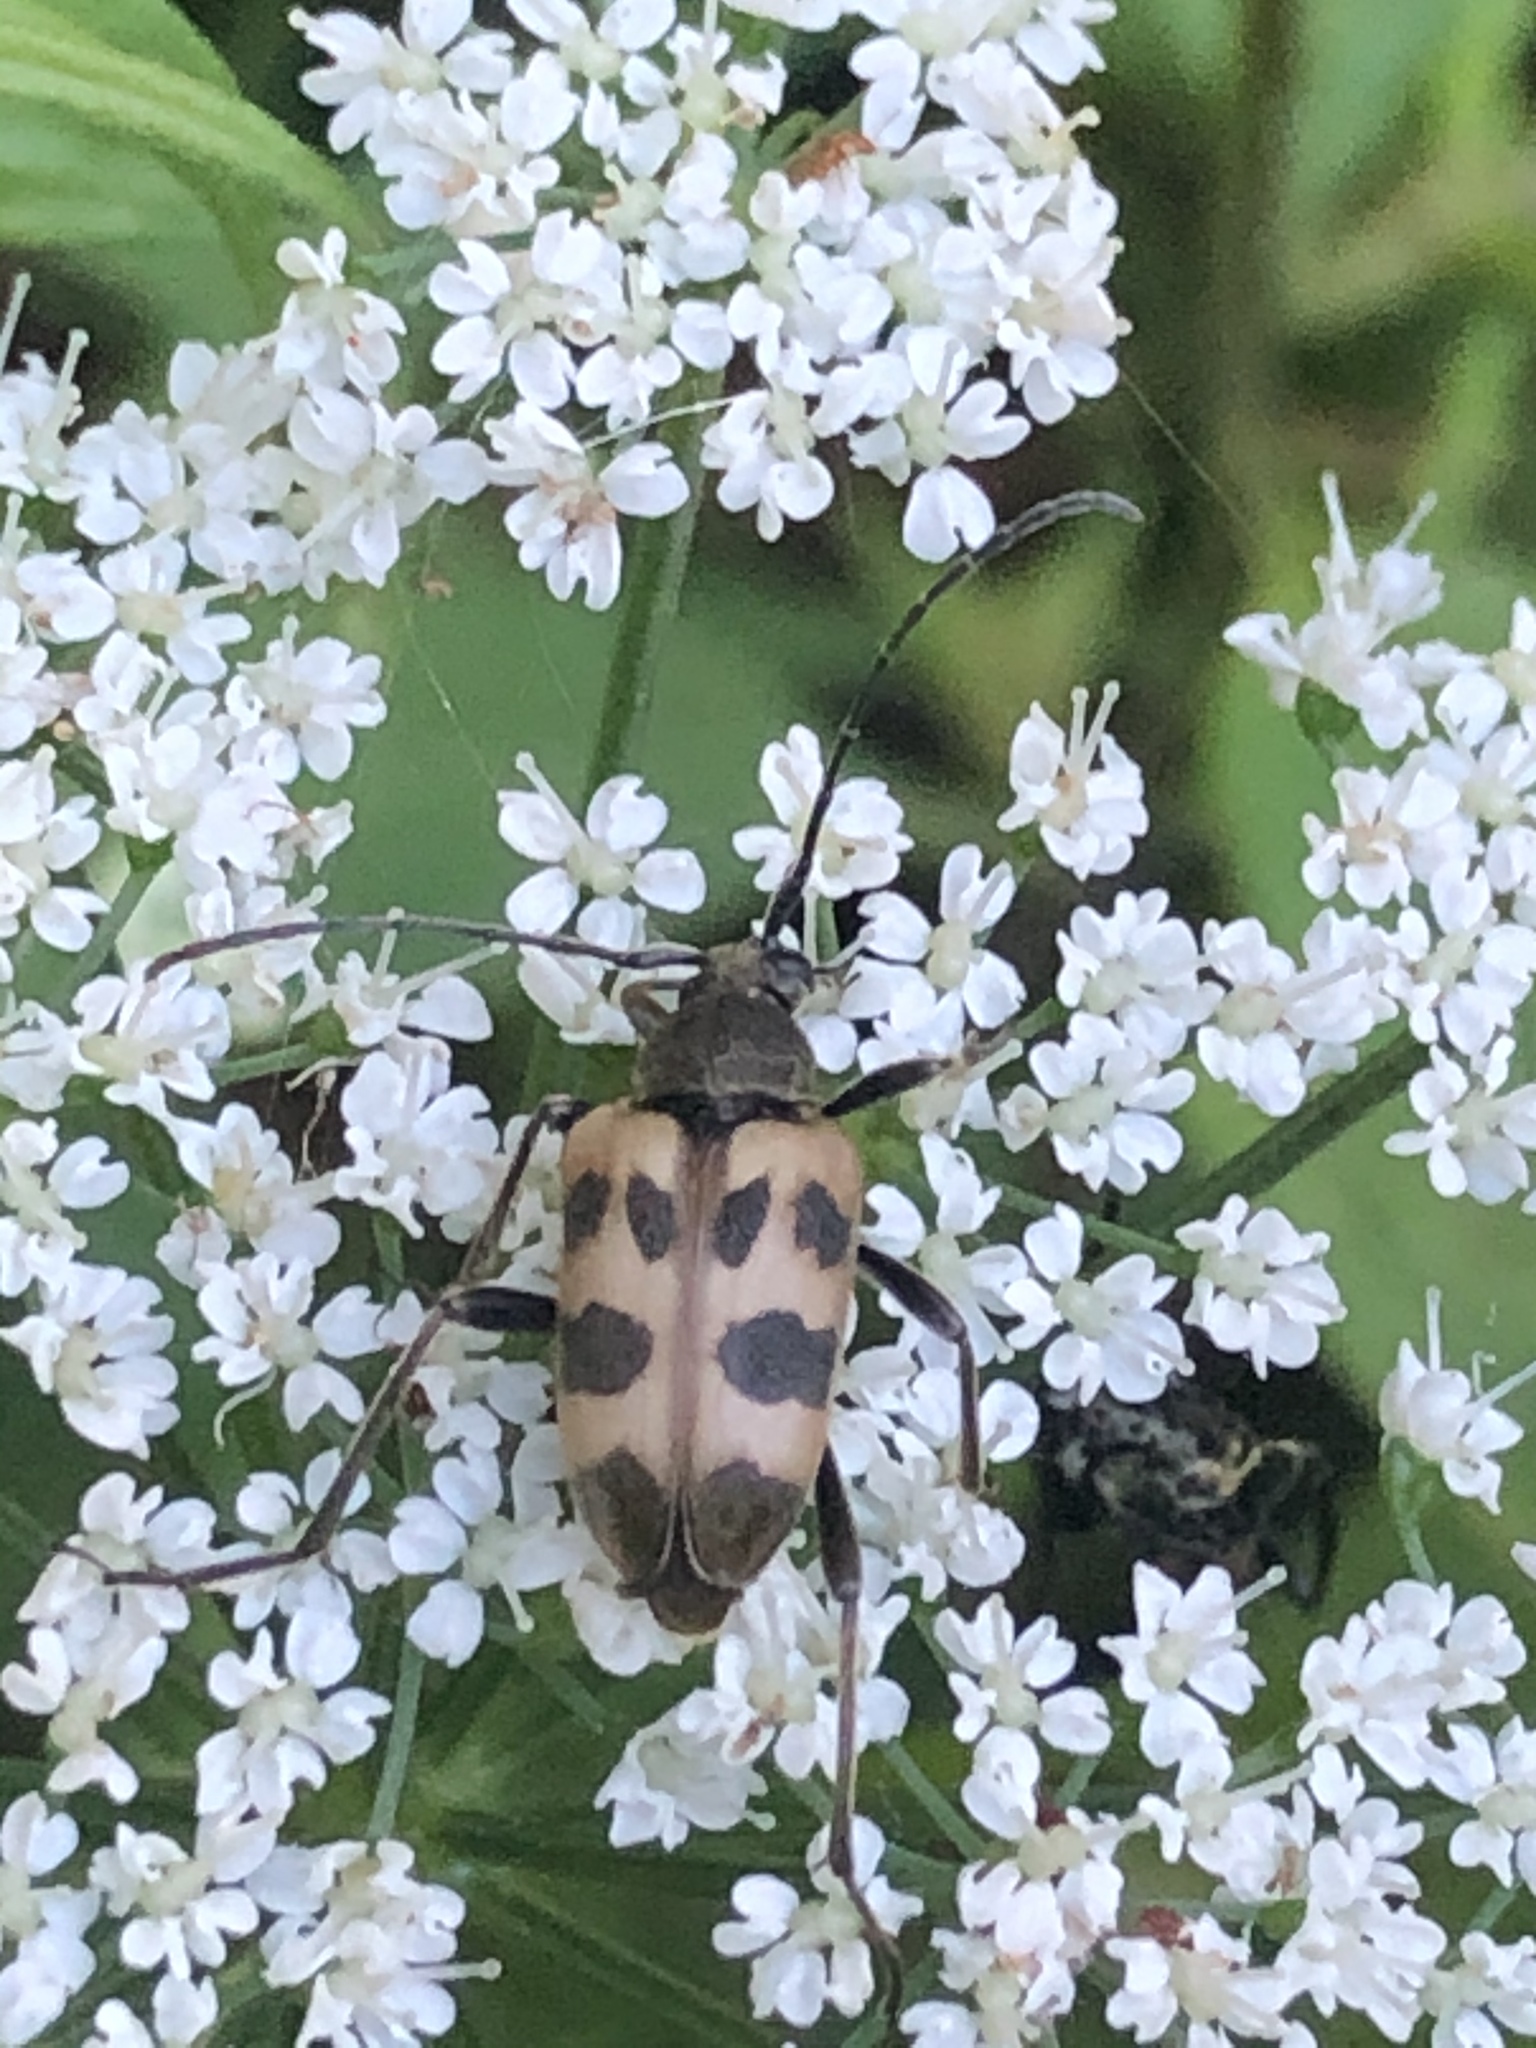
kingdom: Animalia
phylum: Arthropoda
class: Insecta
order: Coleoptera
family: Cerambycidae
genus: Pachytodes
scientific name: Pachytodes cerambyciformis
